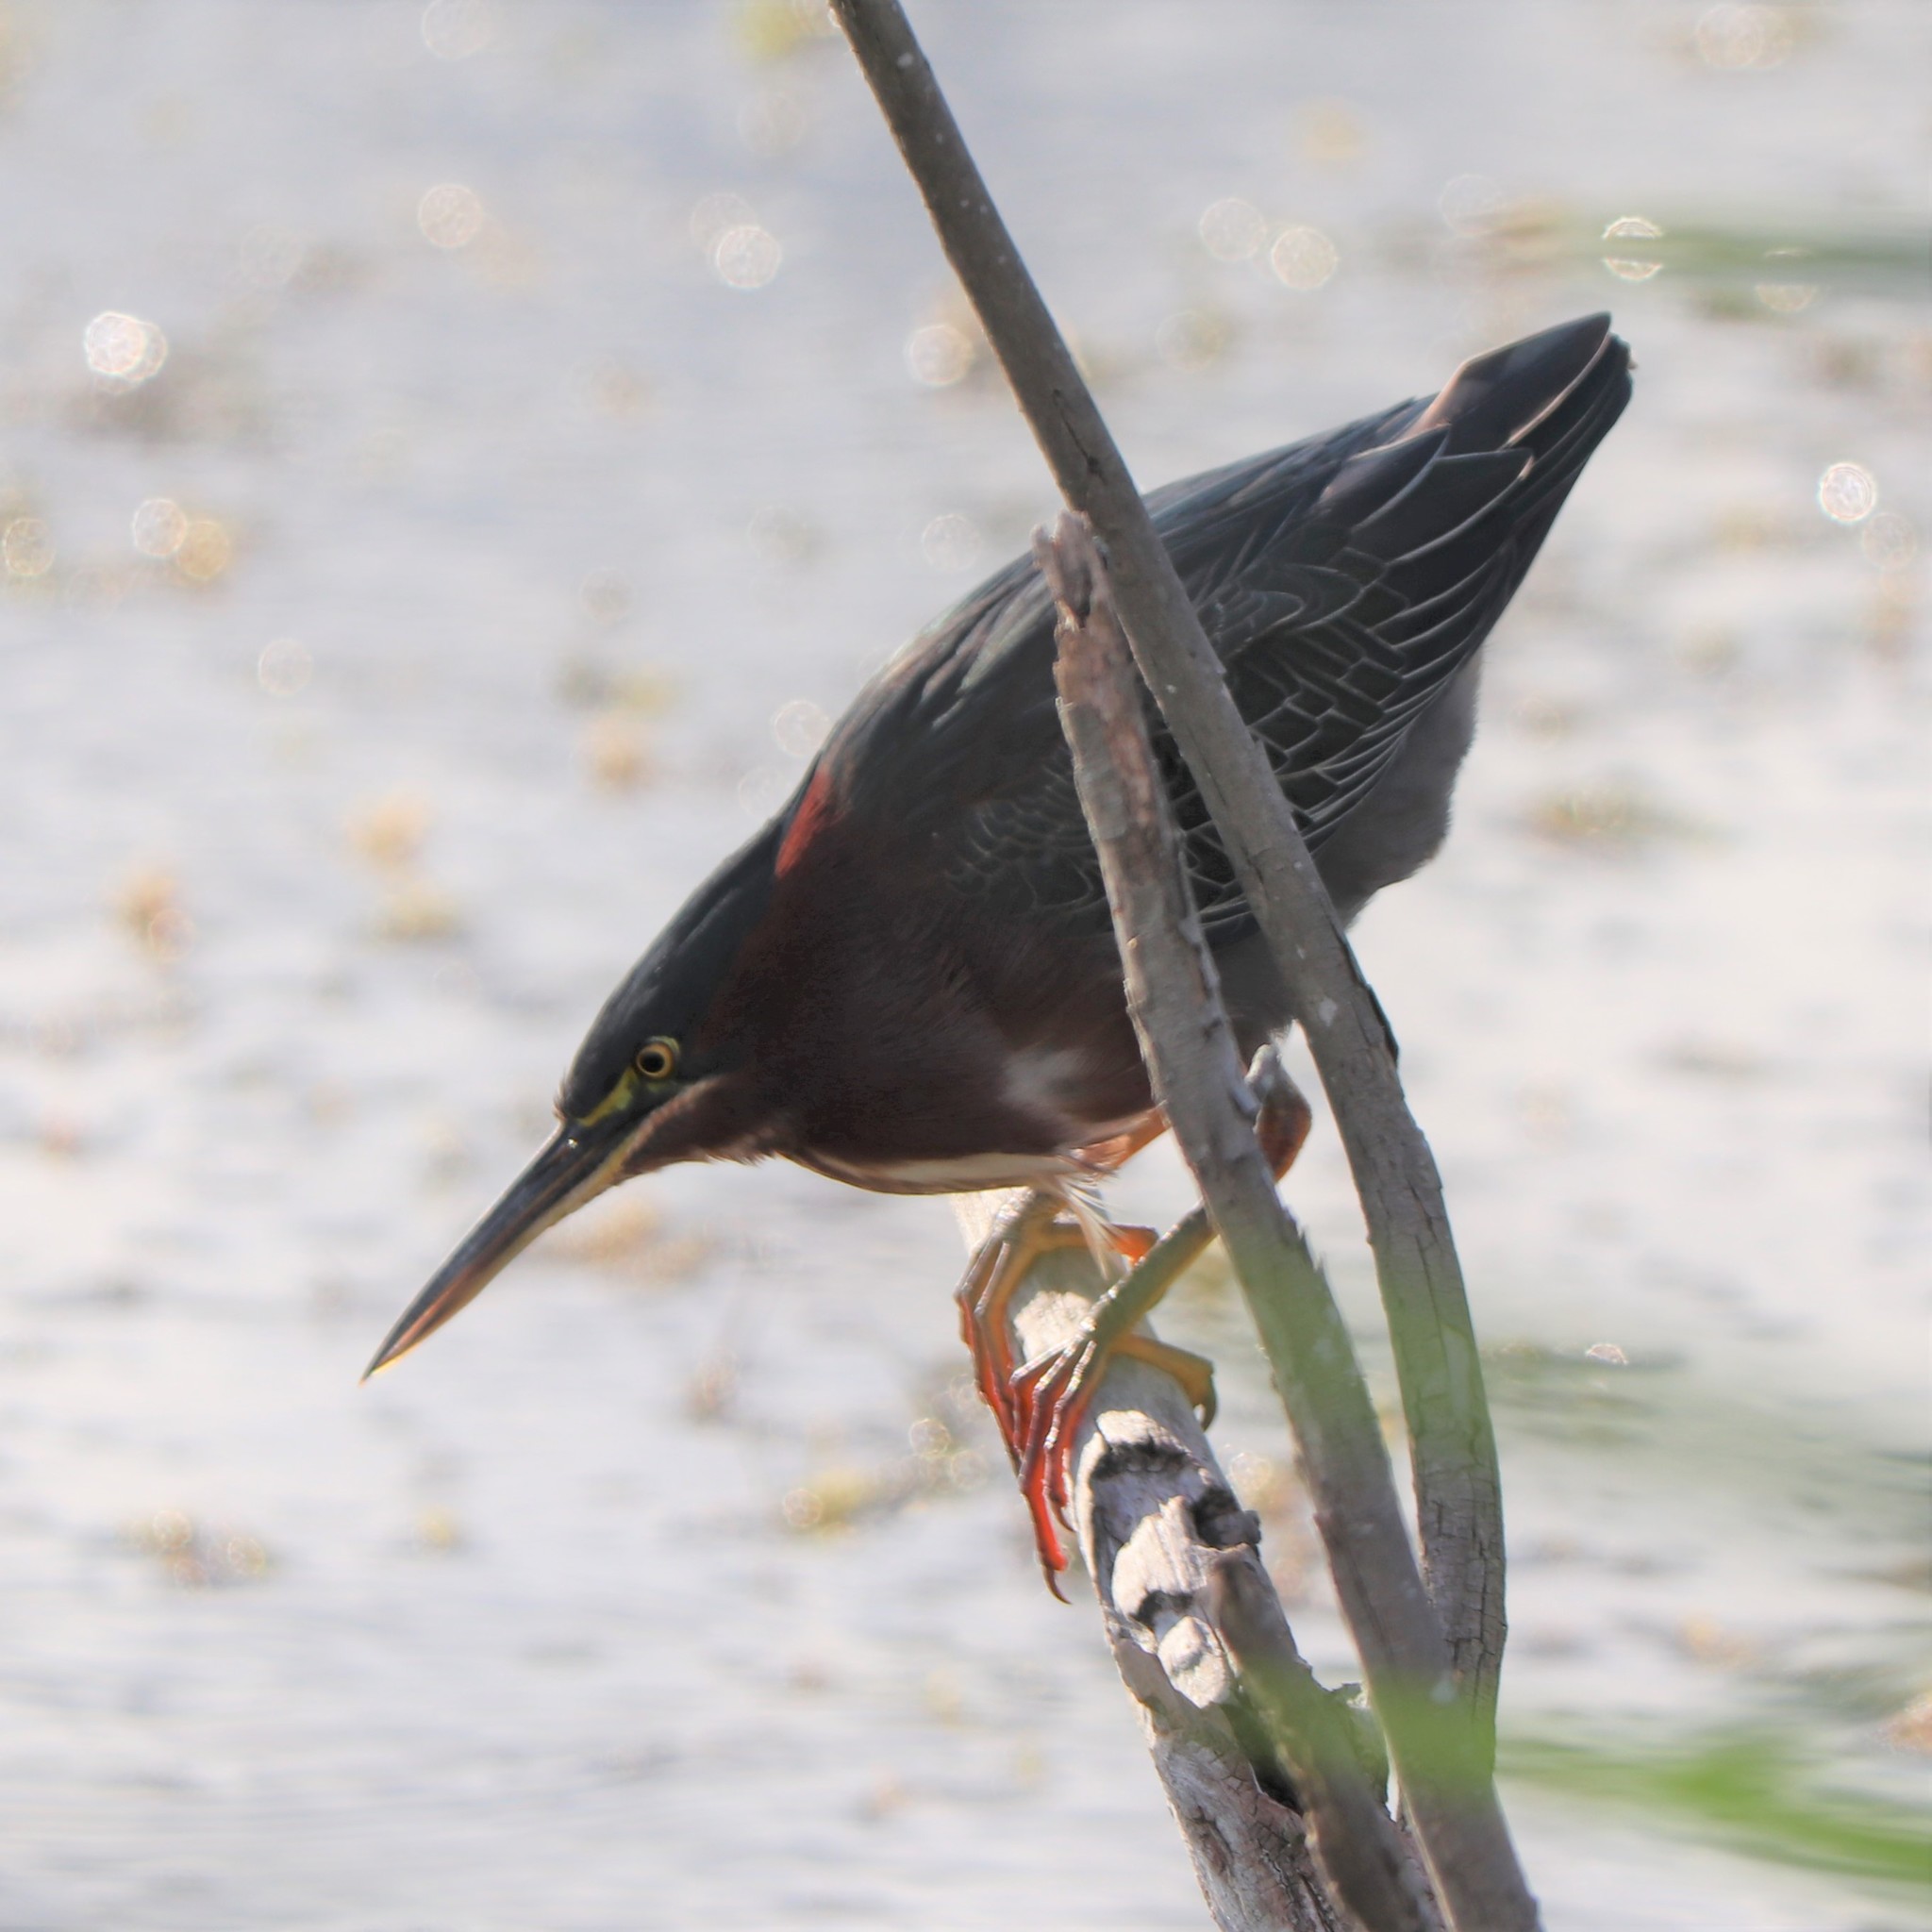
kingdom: Animalia
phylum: Chordata
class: Aves
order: Pelecaniformes
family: Ardeidae
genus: Butorides
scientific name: Butorides virescens
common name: Green heron
